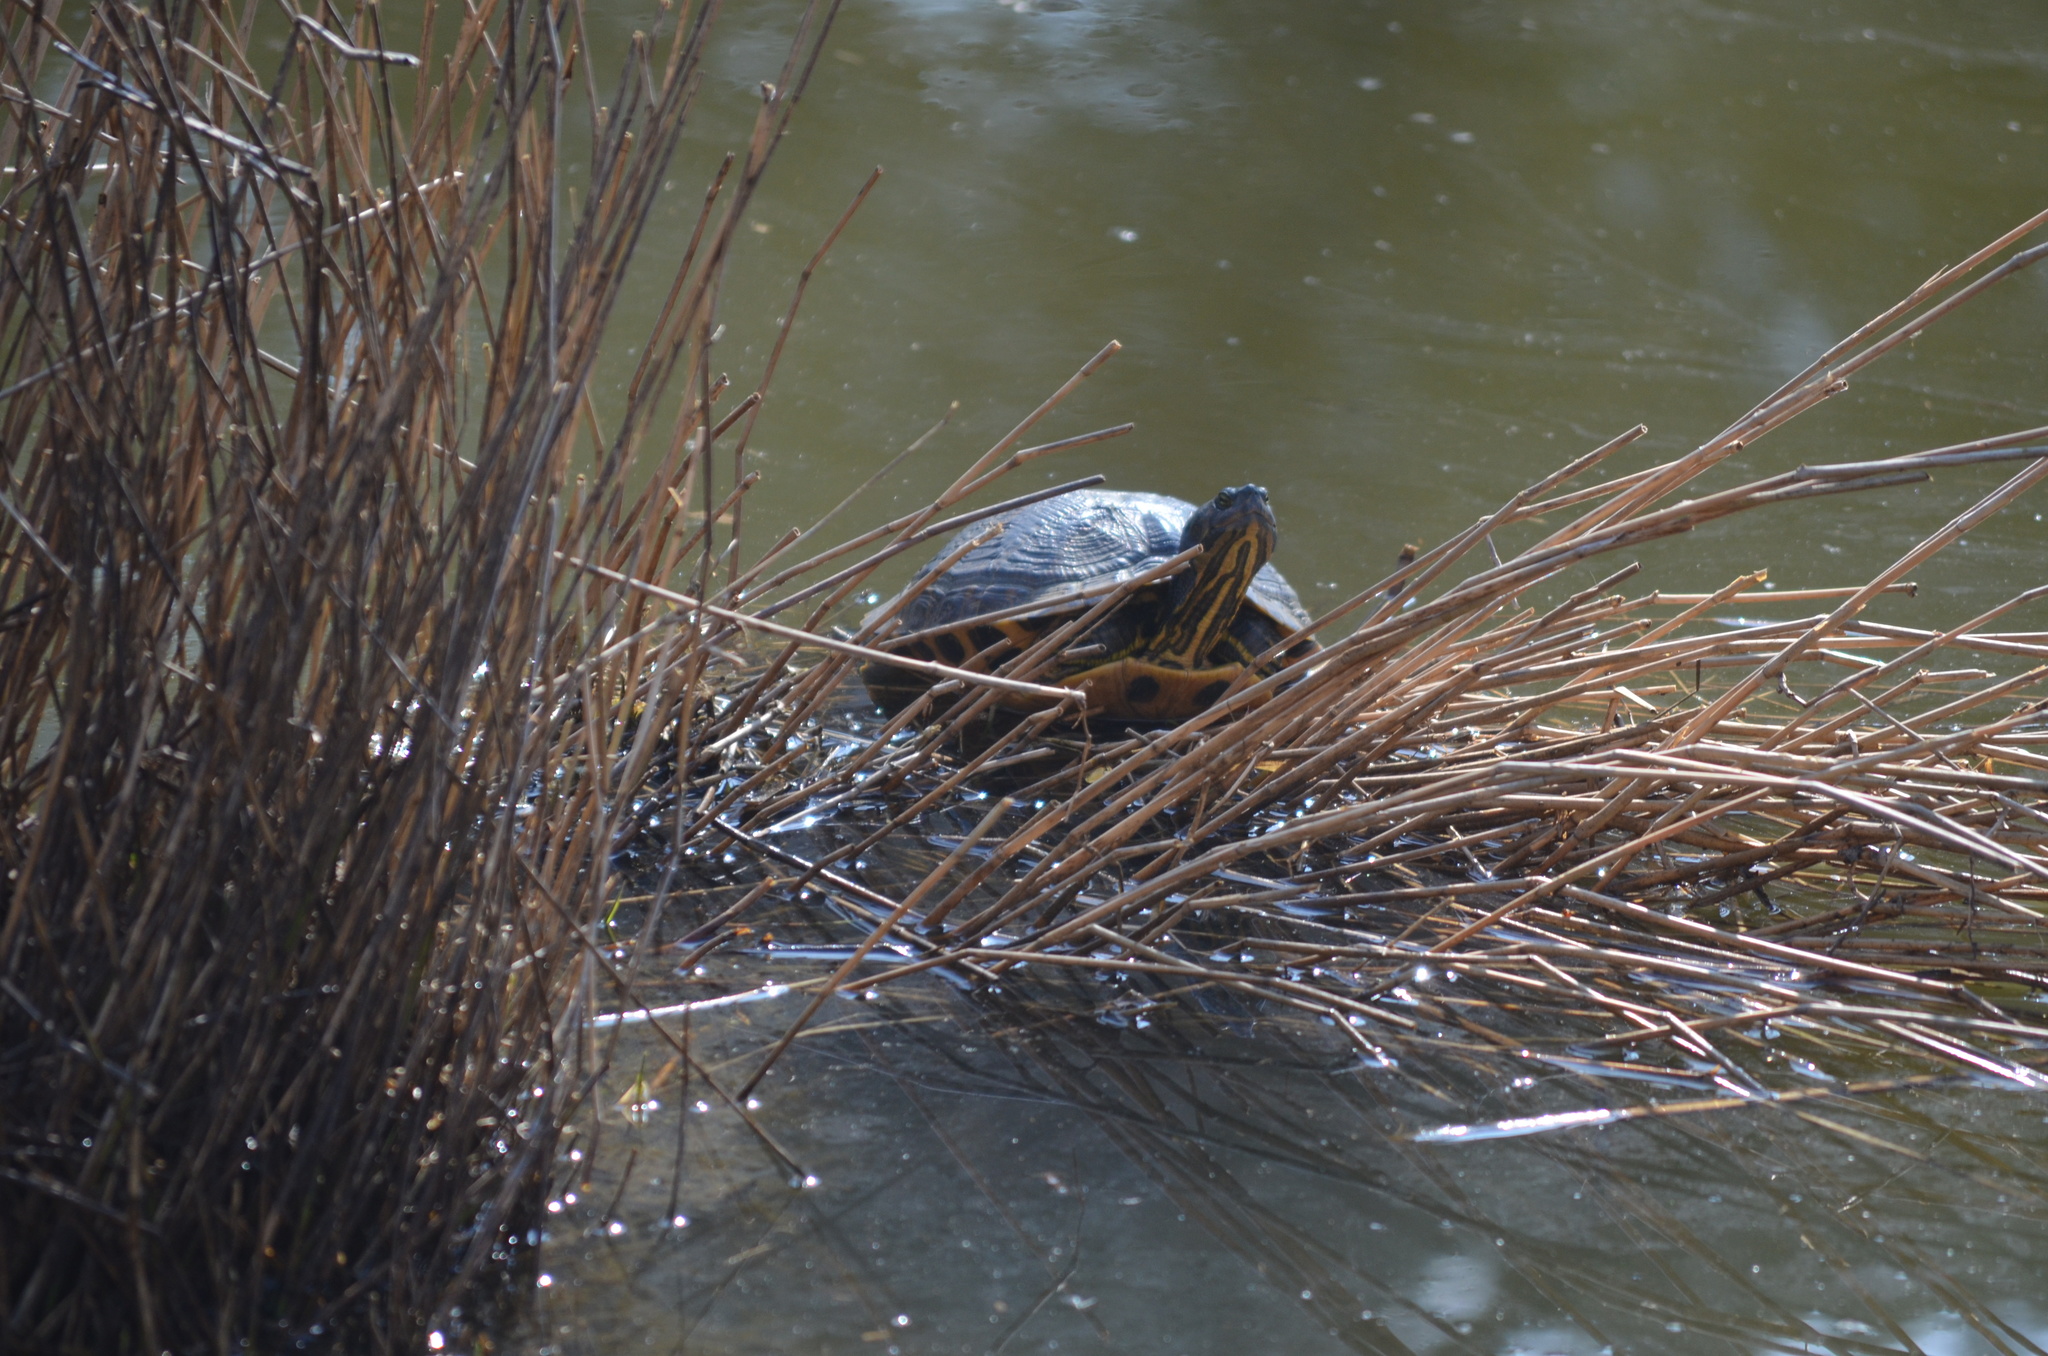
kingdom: Animalia
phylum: Chordata
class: Testudines
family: Emydidae
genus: Trachemys
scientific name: Trachemys scripta
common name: Slider
